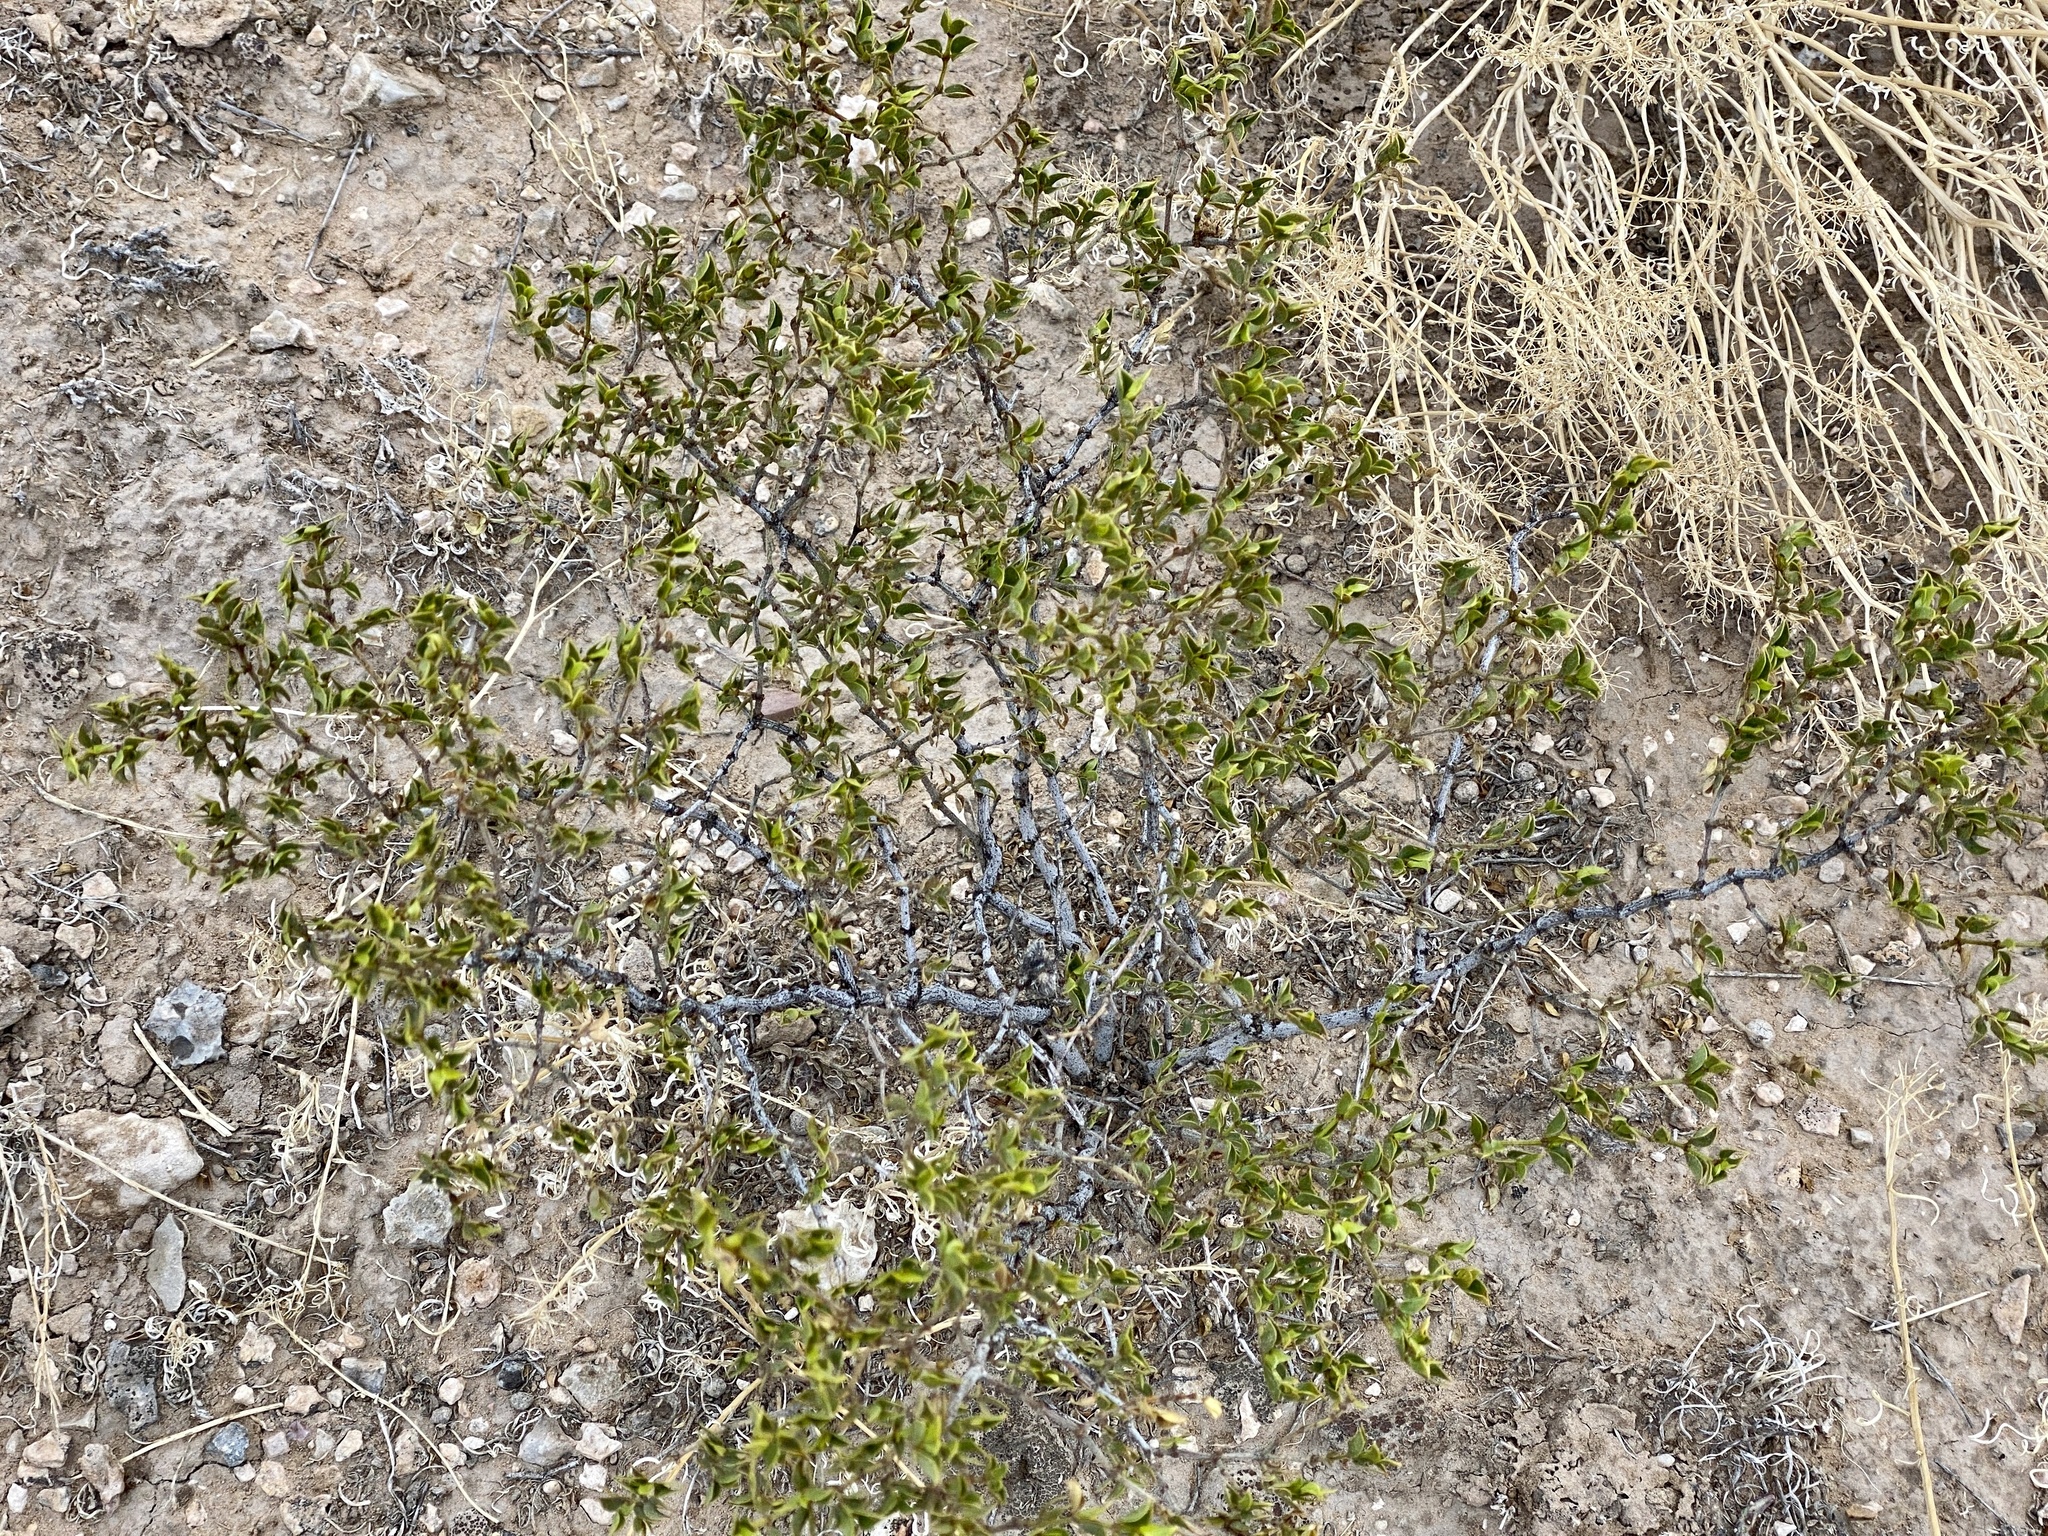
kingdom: Plantae
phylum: Tracheophyta
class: Magnoliopsida
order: Zygophyllales
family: Zygophyllaceae
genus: Larrea
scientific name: Larrea tridentata
